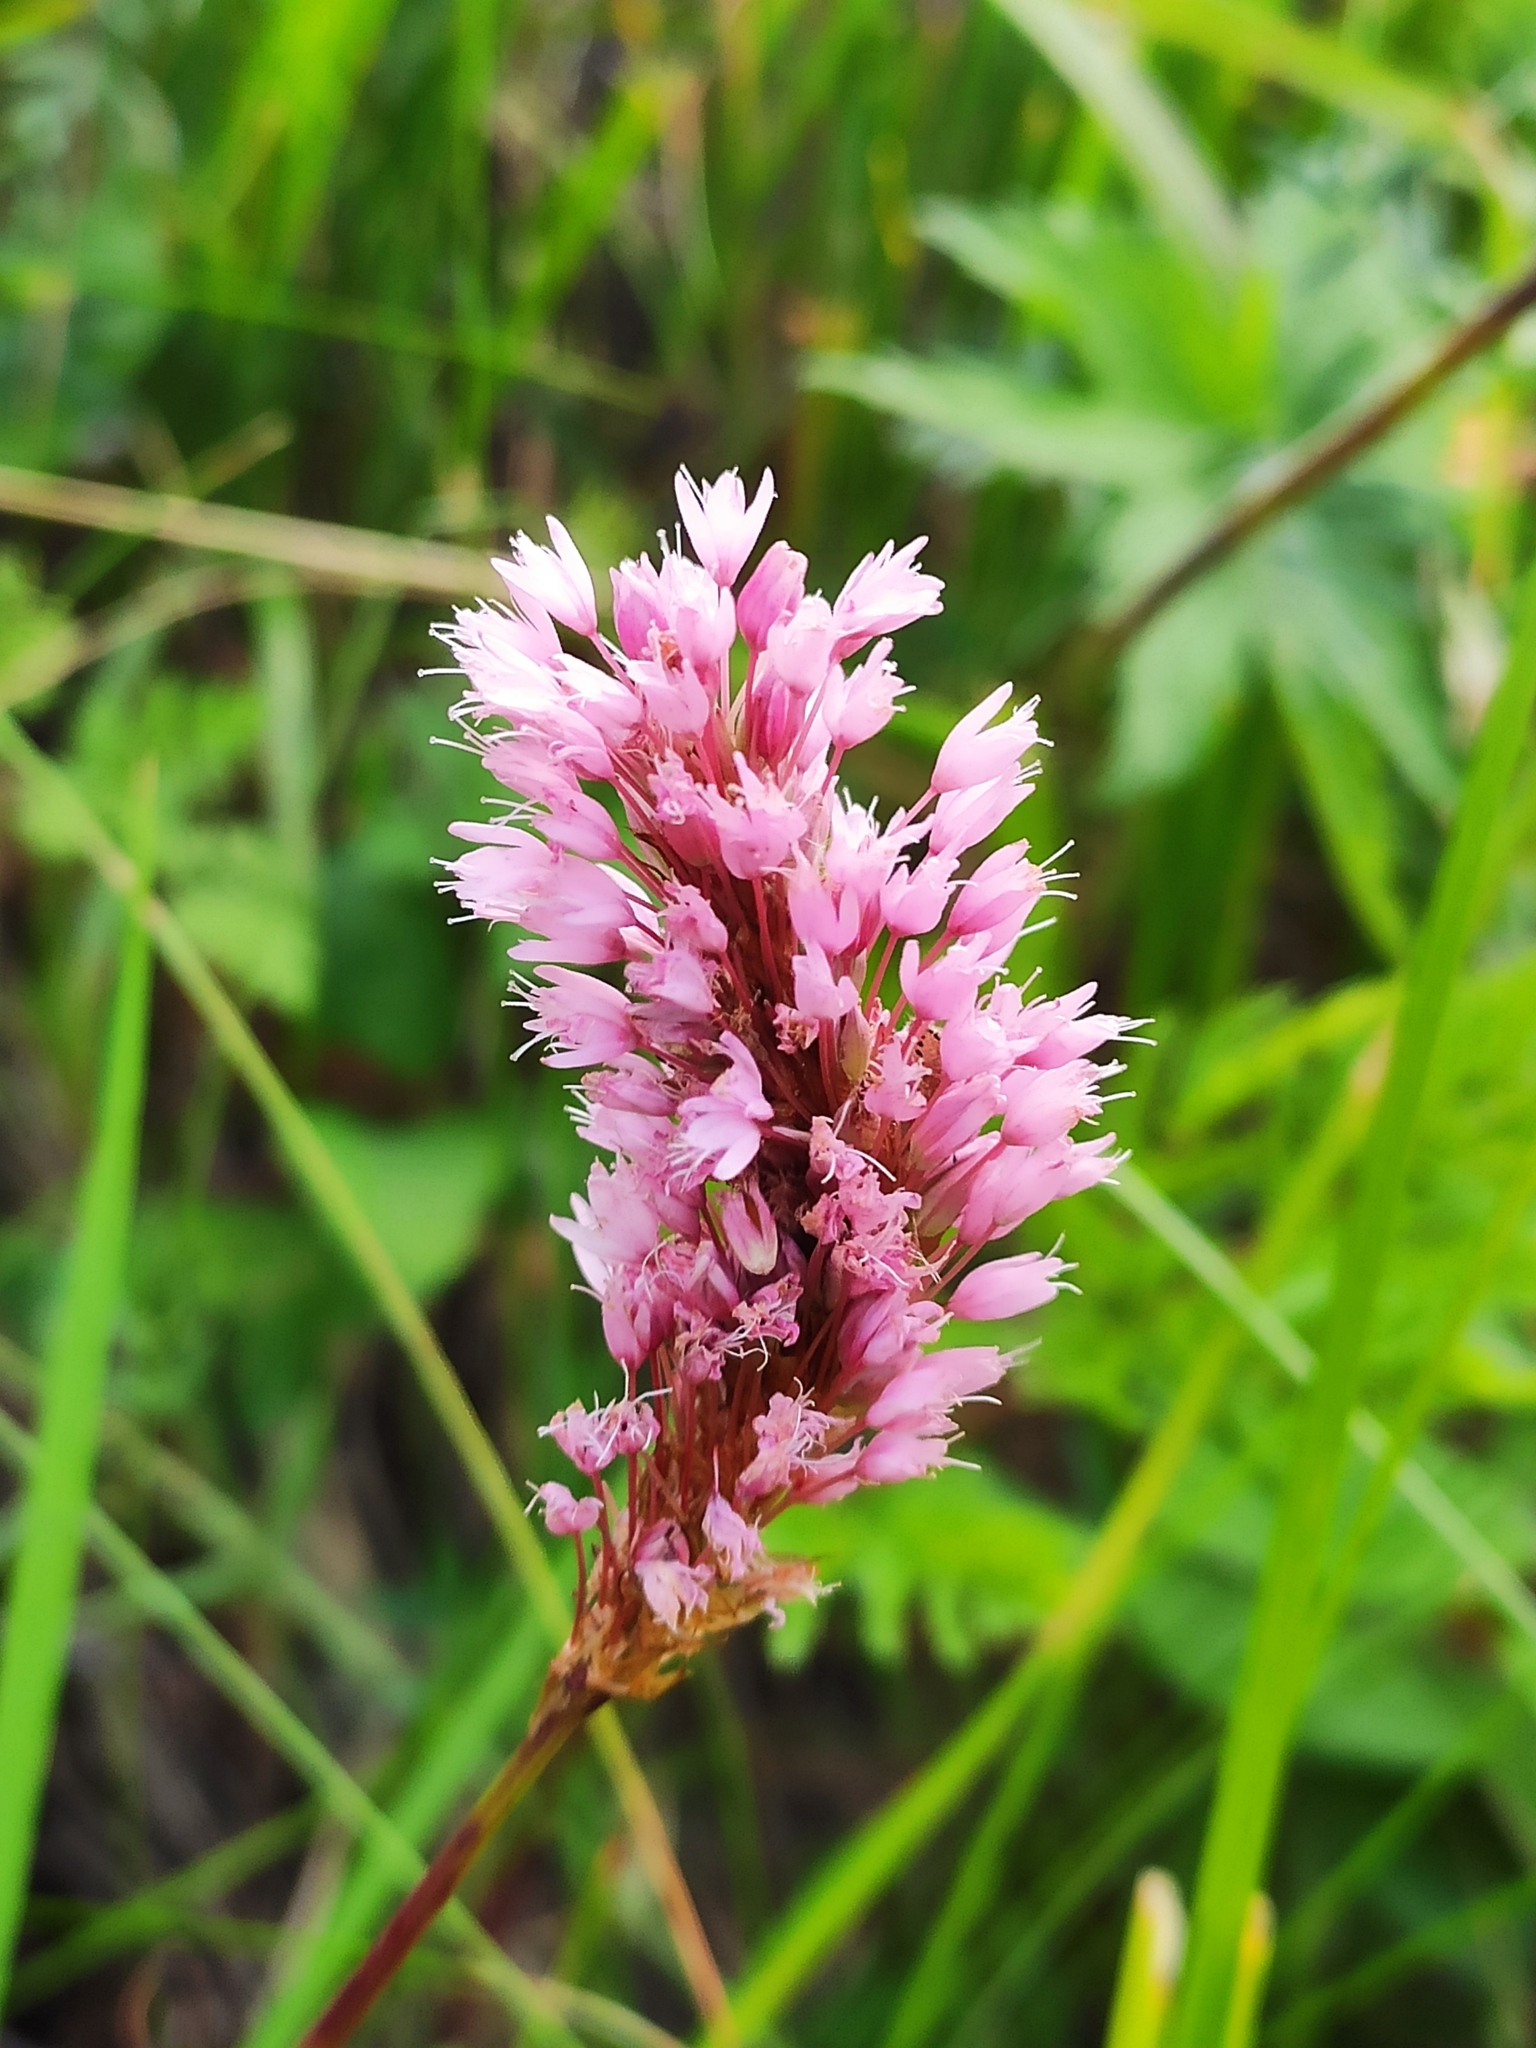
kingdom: Plantae
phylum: Tracheophyta
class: Magnoliopsida
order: Caryophyllales
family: Polygonaceae
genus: Bistorta
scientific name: Bistorta carnea
